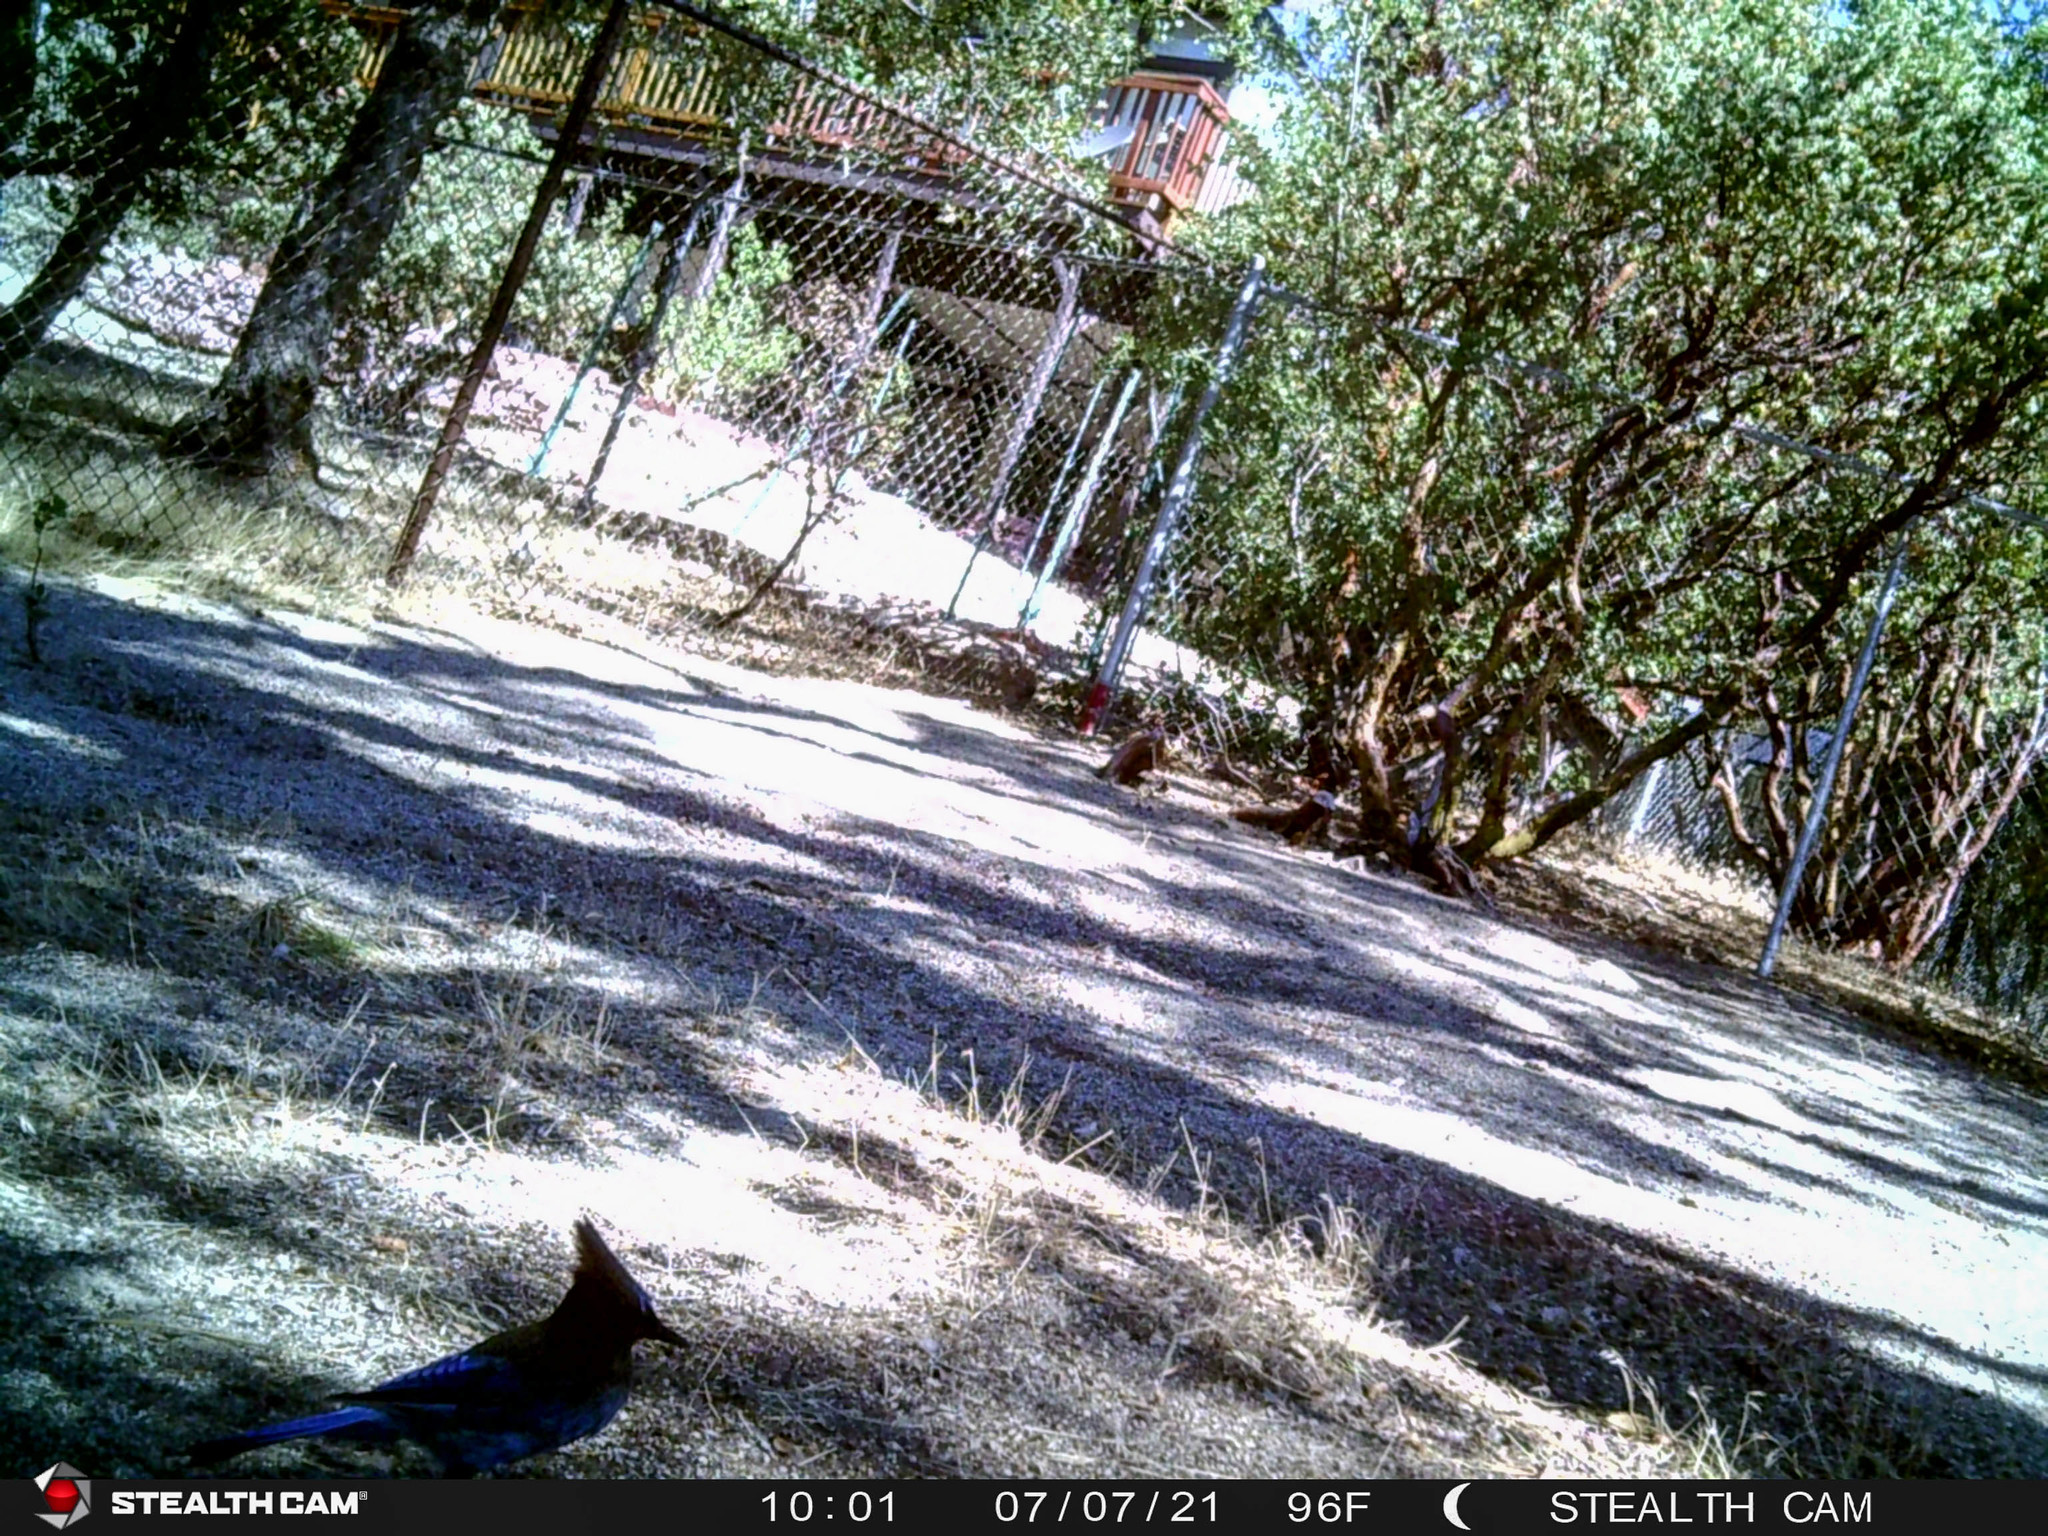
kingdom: Animalia
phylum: Chordata
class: Aves
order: Passeriformes
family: Corvidae
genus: Cyanocitta
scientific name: Cyanocitta stelleri
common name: Steller's jay
